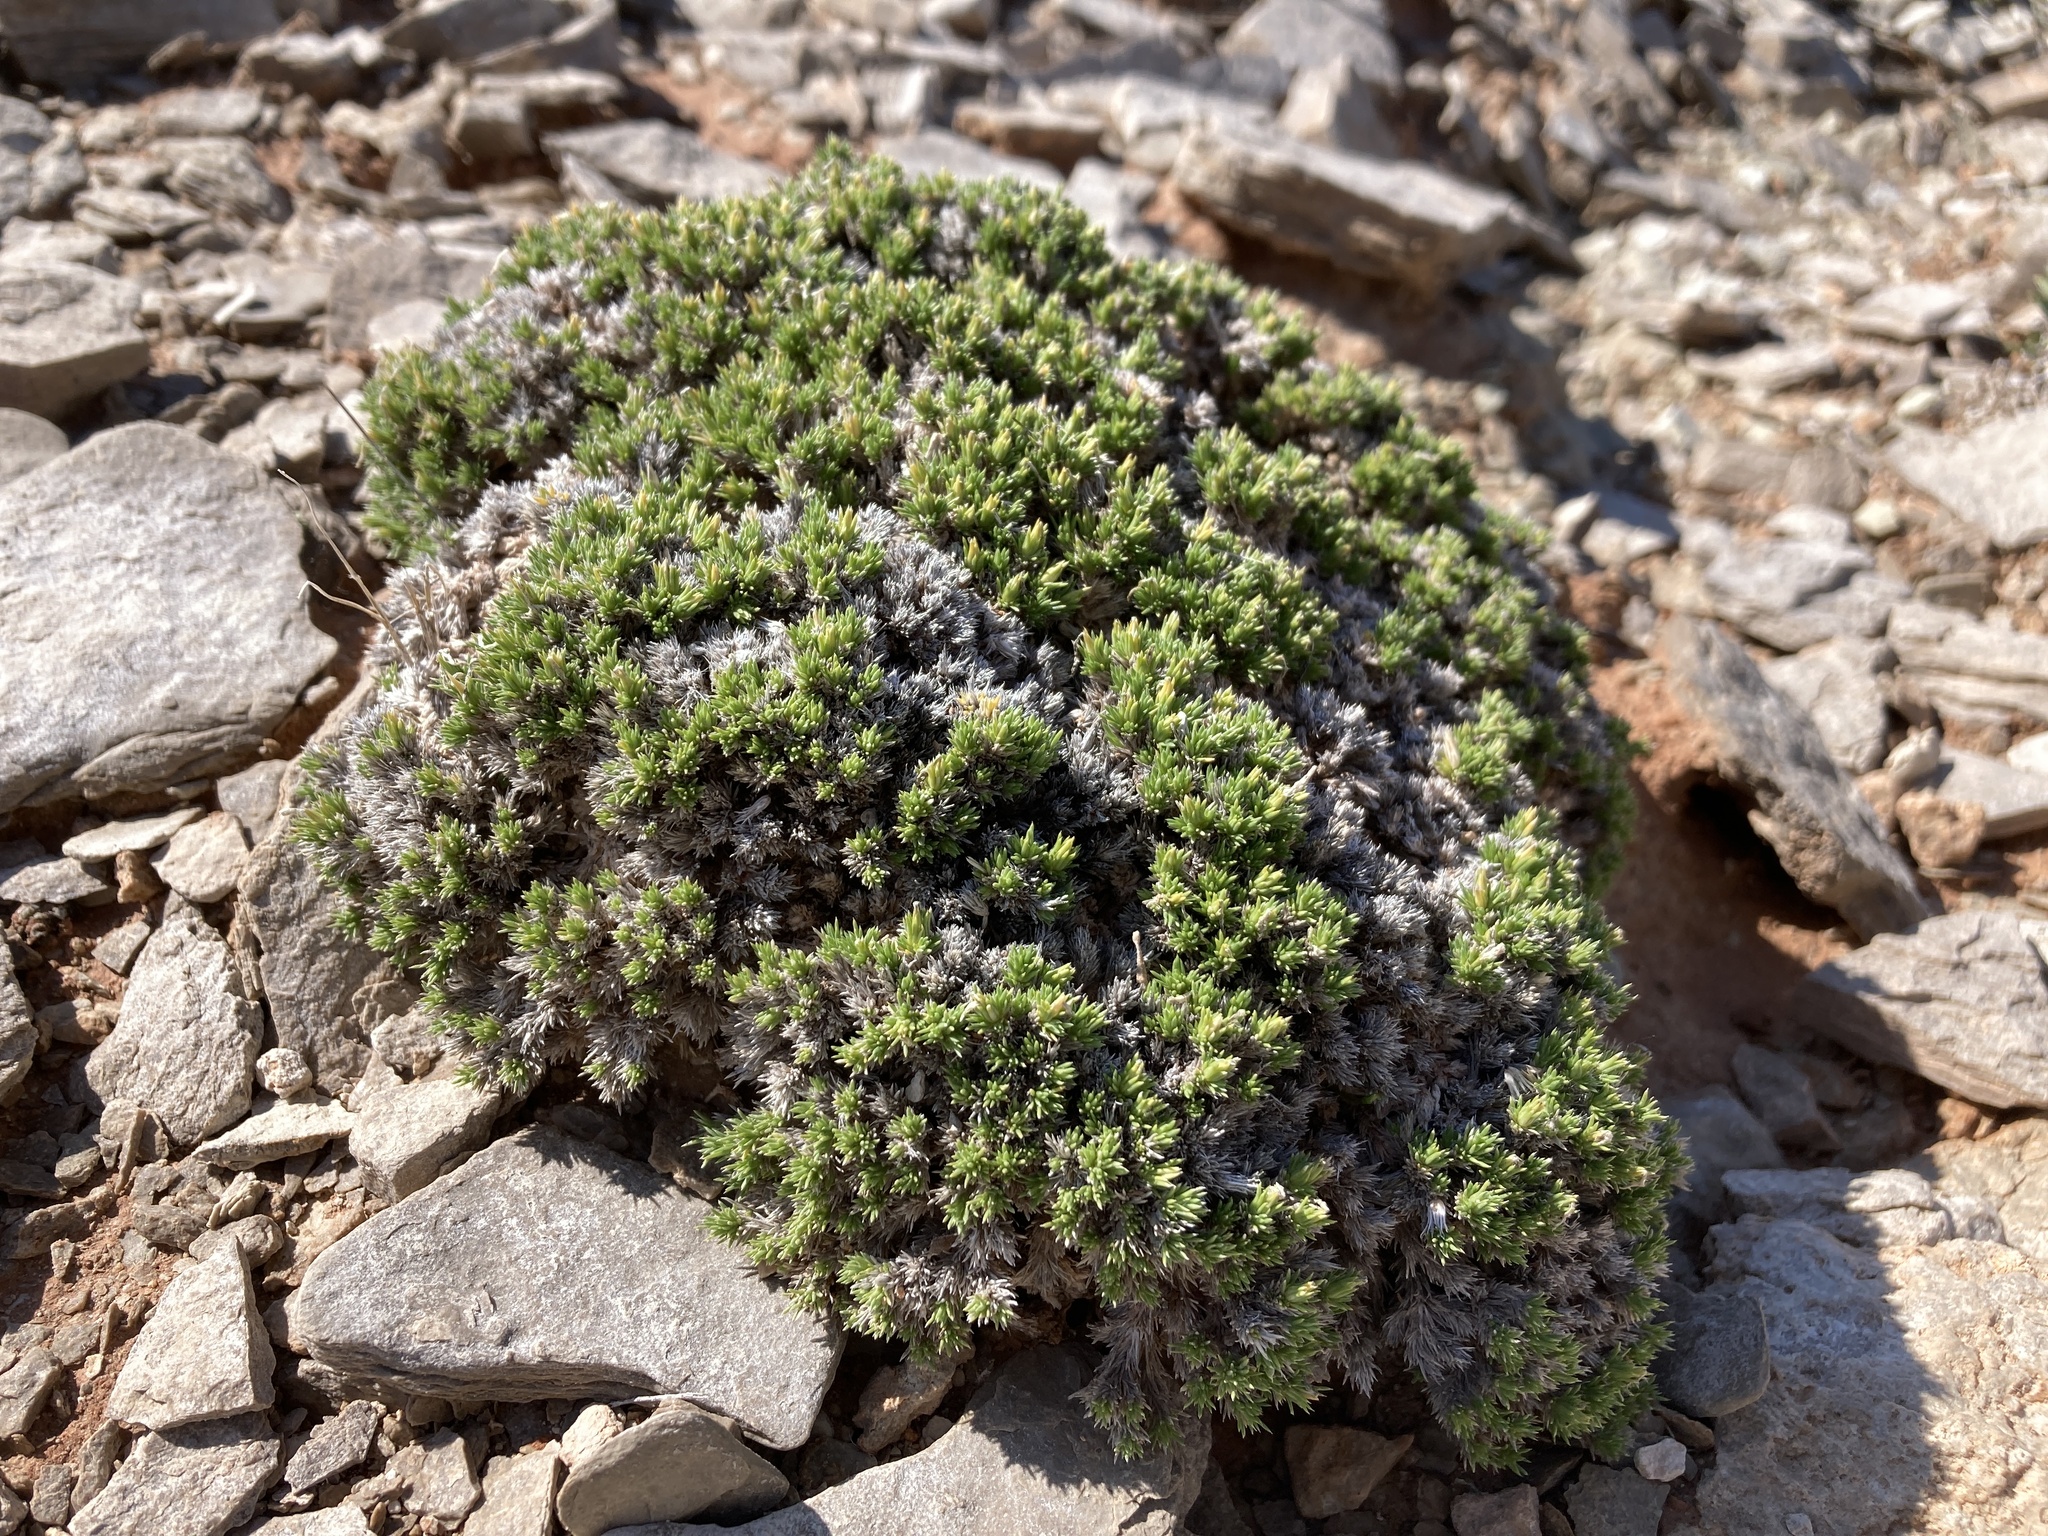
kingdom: Plantae
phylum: Tracheophyta
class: Magnoliopsida
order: Ericales
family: Polemoniaceae
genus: Linanthus
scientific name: Linanthus caespitosus
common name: Mat prickly phlox
